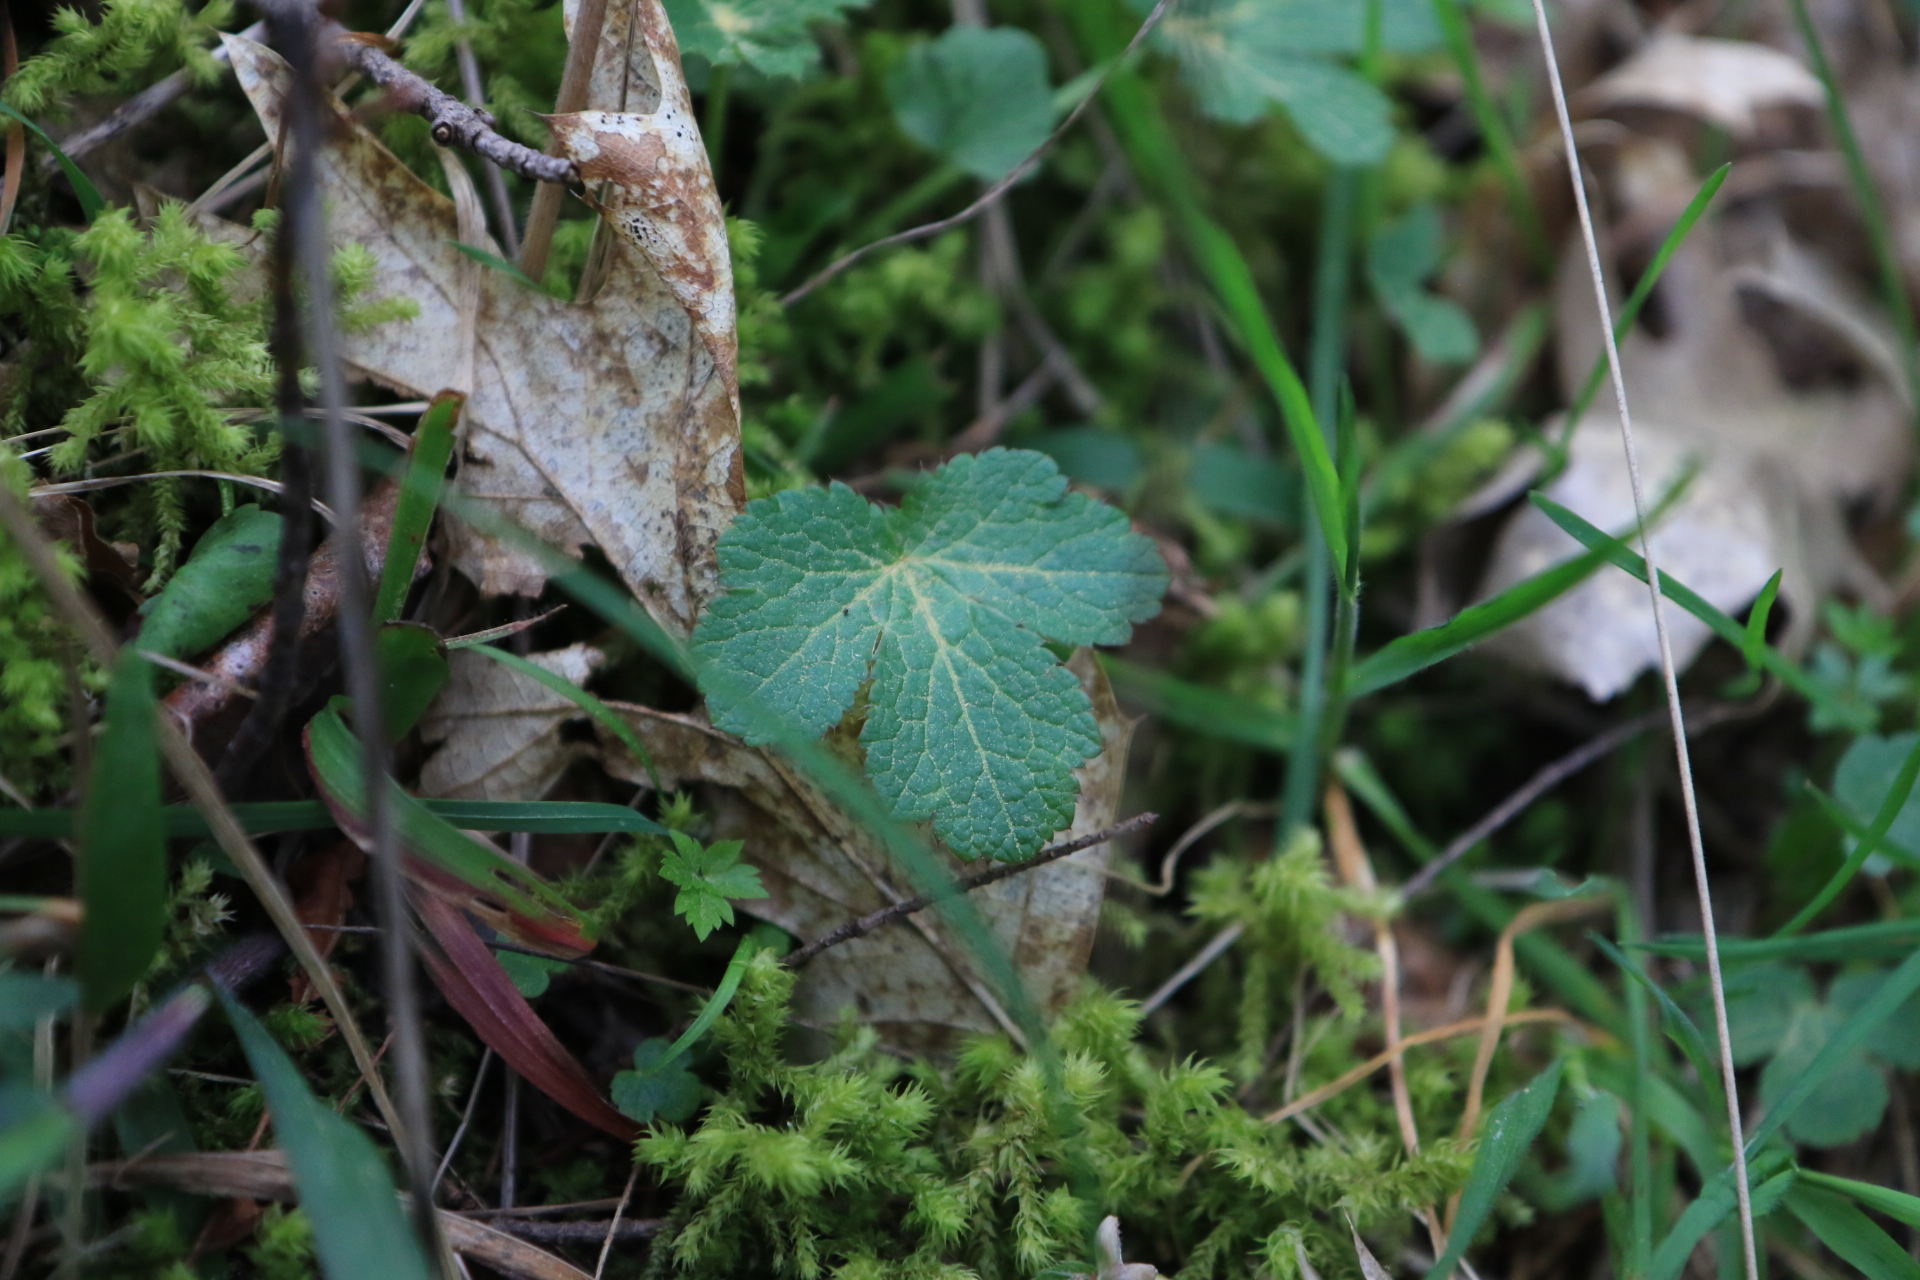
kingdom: Plantae
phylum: Tracheophyta
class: Magnoliopsida
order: Apiales
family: Apiaceae
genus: Sanicula
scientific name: Sanicula crassicaulis
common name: Western snakeroot
